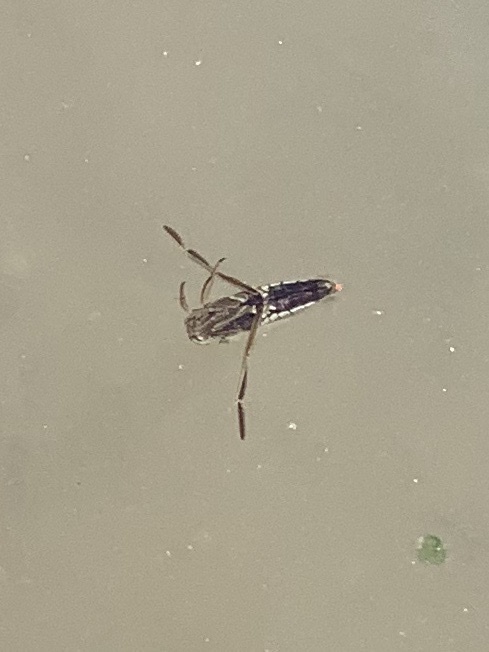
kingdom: Animalia
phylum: Arthropoda
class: Insecta
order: Hemiptera
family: Notonectidae
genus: Notonecta
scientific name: Notonecta
